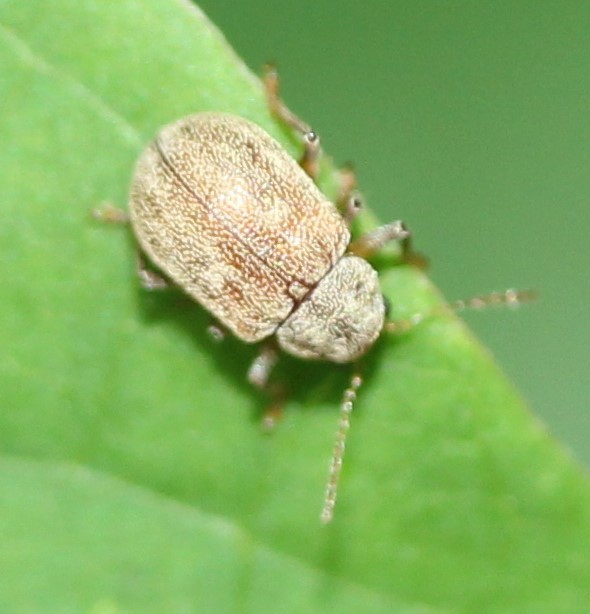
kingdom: Animalia
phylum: Arthropoda
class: Insecta
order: Coleoptera
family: Chrysomelidae
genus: Demotina
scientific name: Demotina modesta
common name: Leaf beetle
